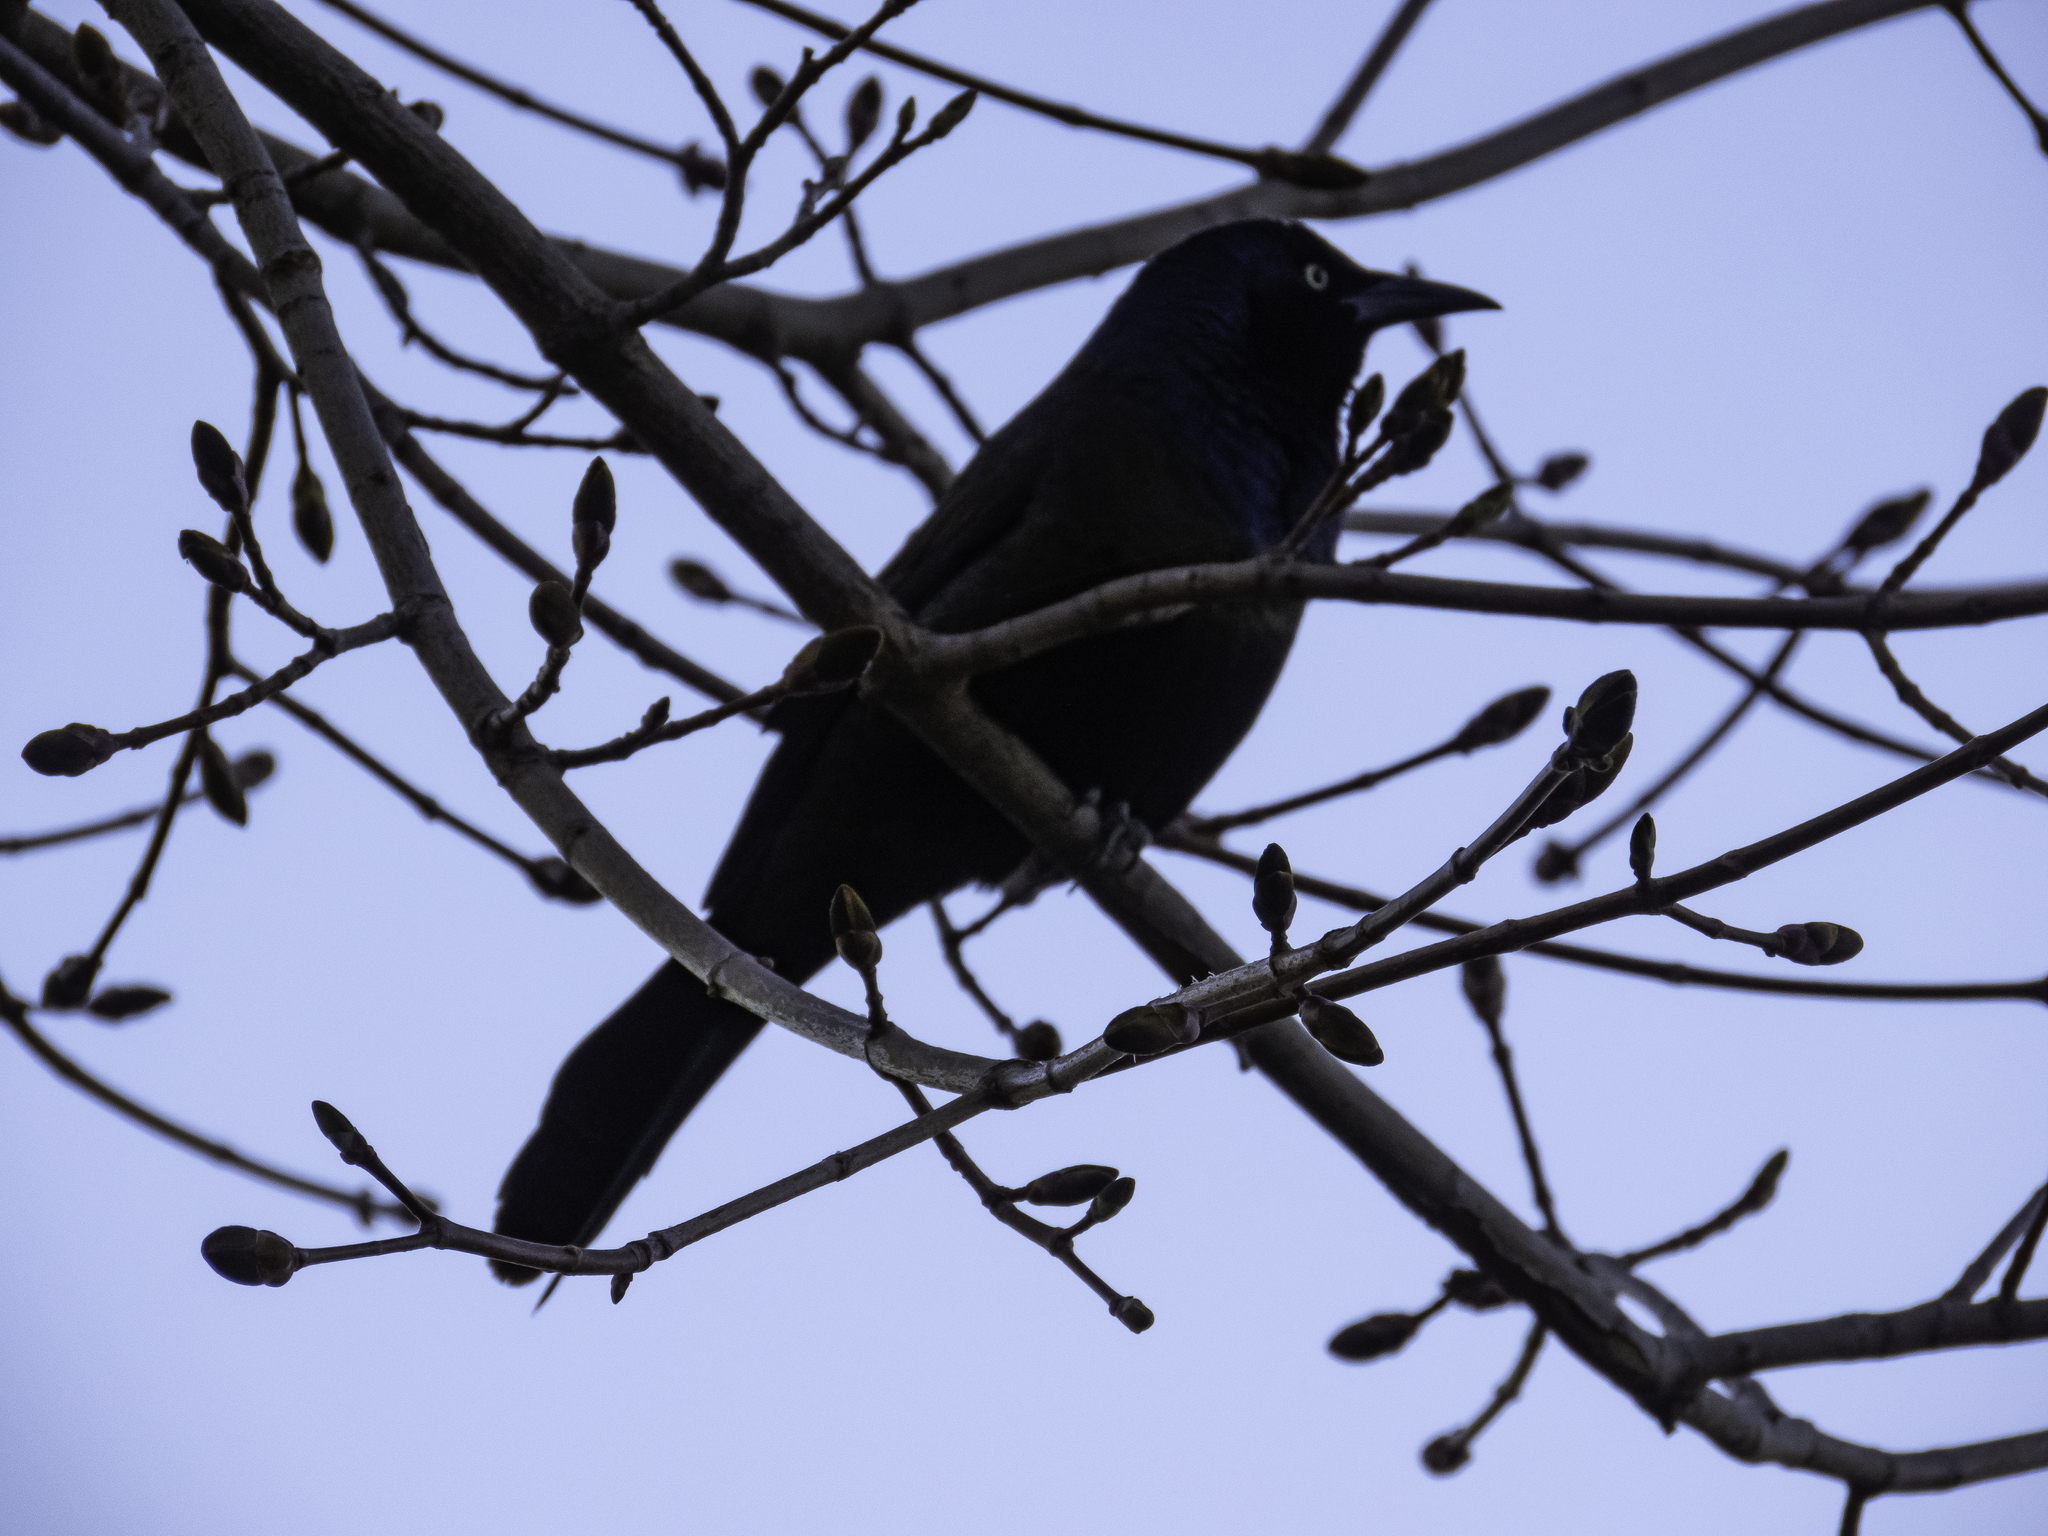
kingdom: Animalia
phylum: Chordata
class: Aves
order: Passeriformes
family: Icteridae
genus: Quiscalus
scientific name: Quiscalus quiscula
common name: Common grackle
